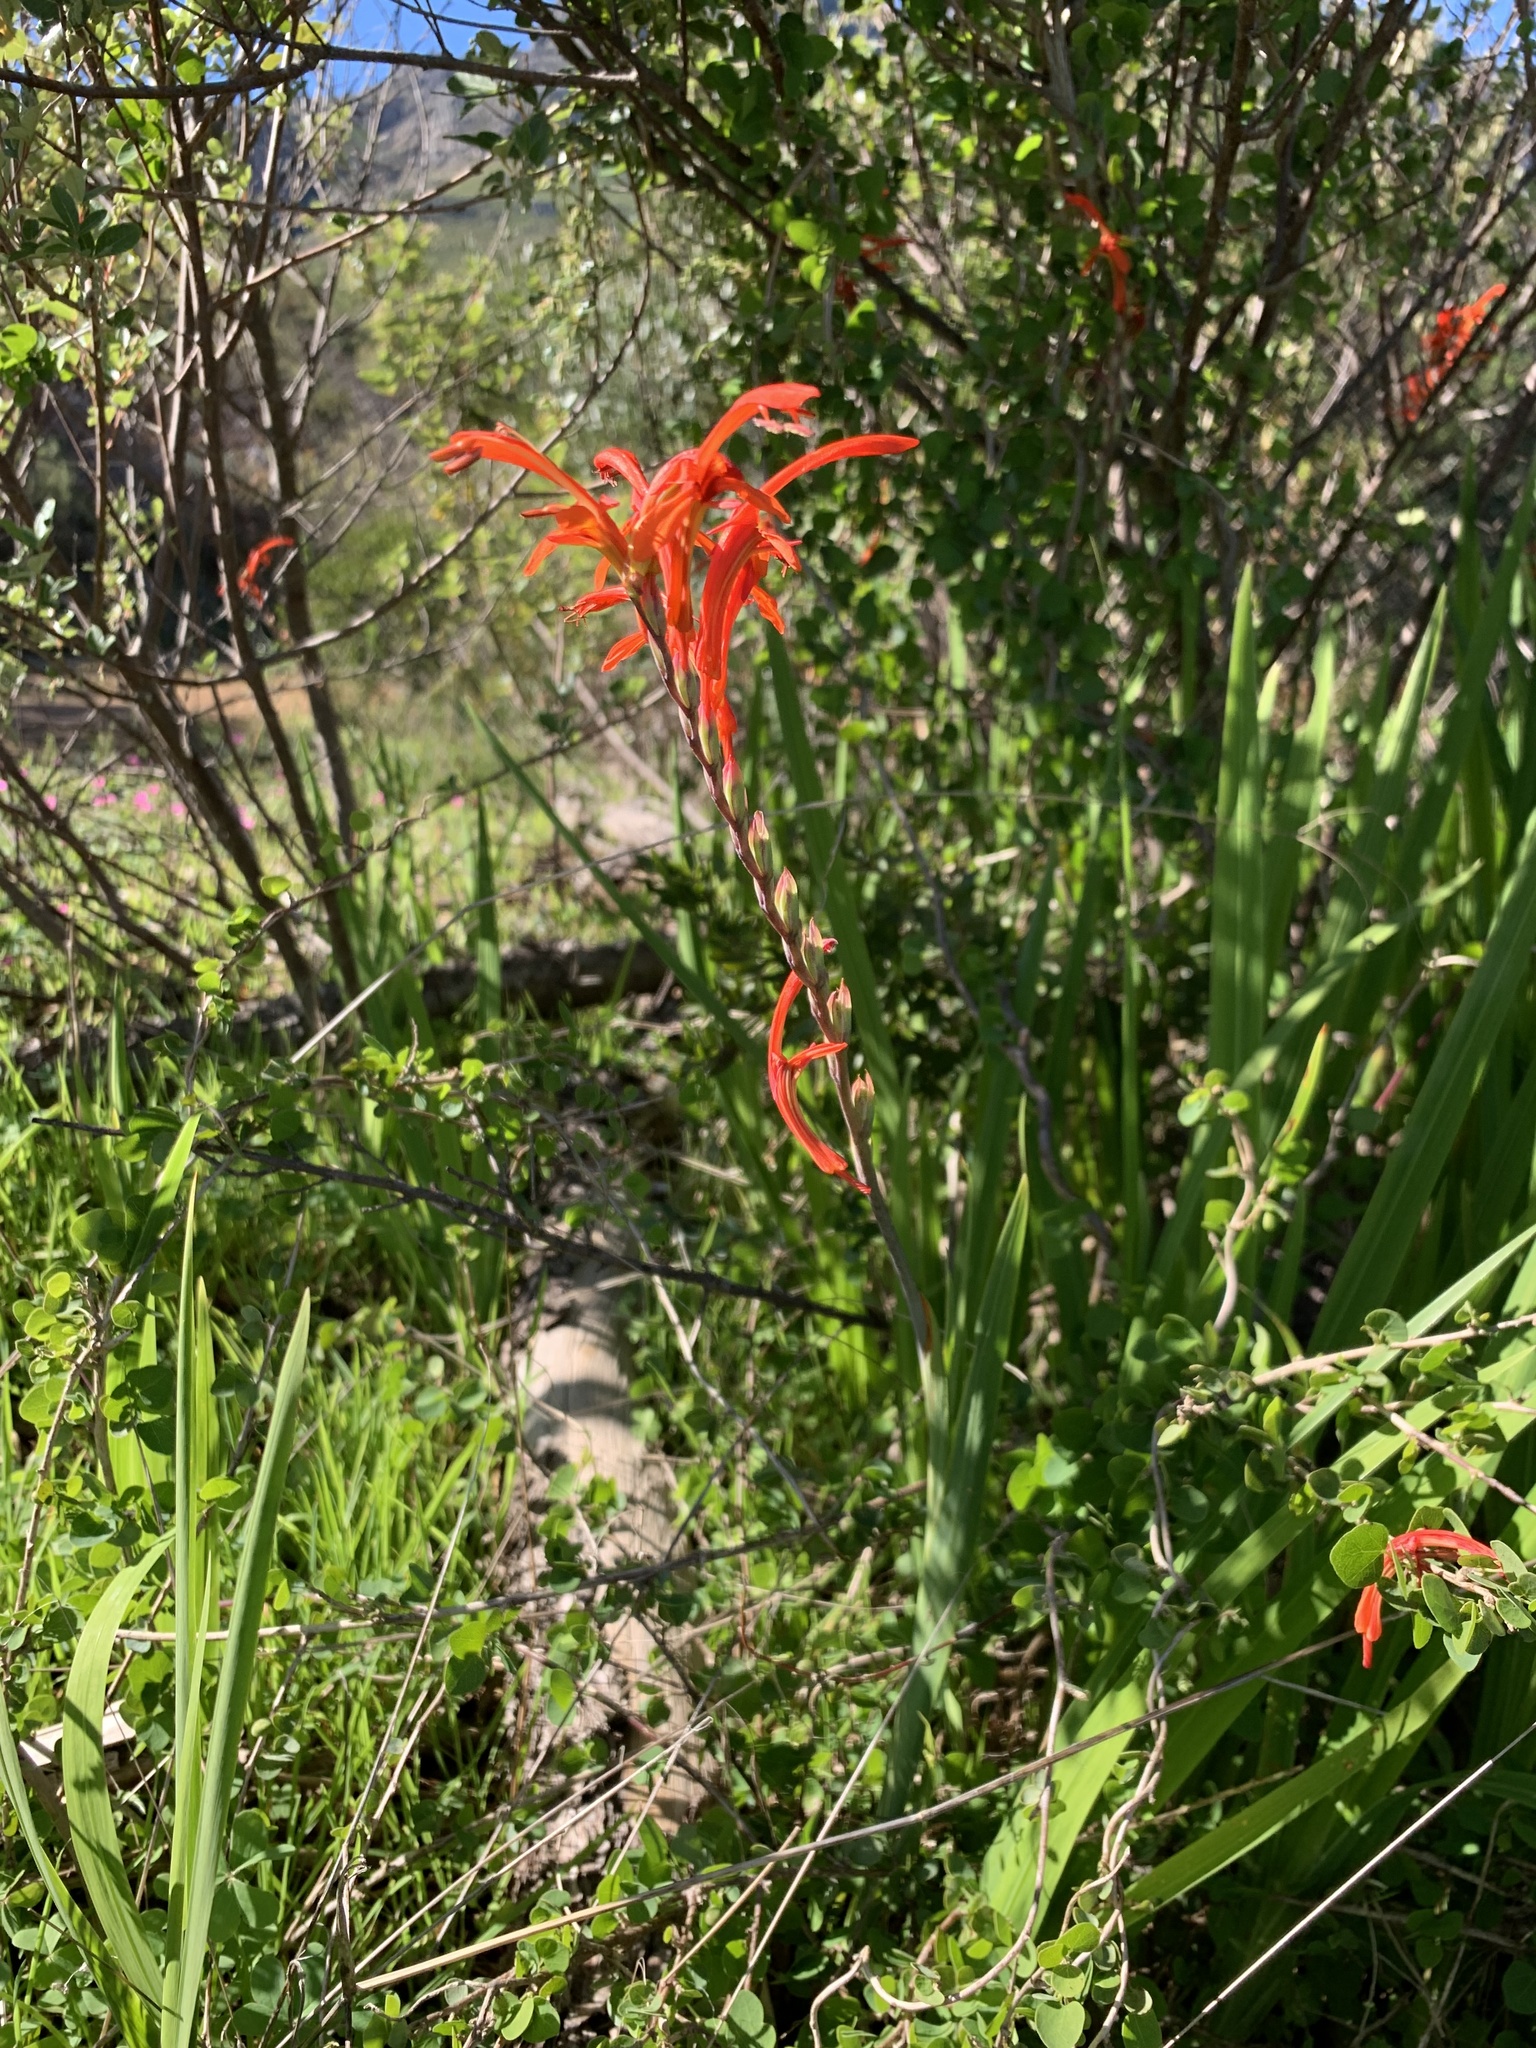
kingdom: Plantae
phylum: Tracheophyta
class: Liliopsida
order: Asparagales
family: Iridaceae
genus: Chasmanthe
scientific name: Chasmanthe aethiopica
